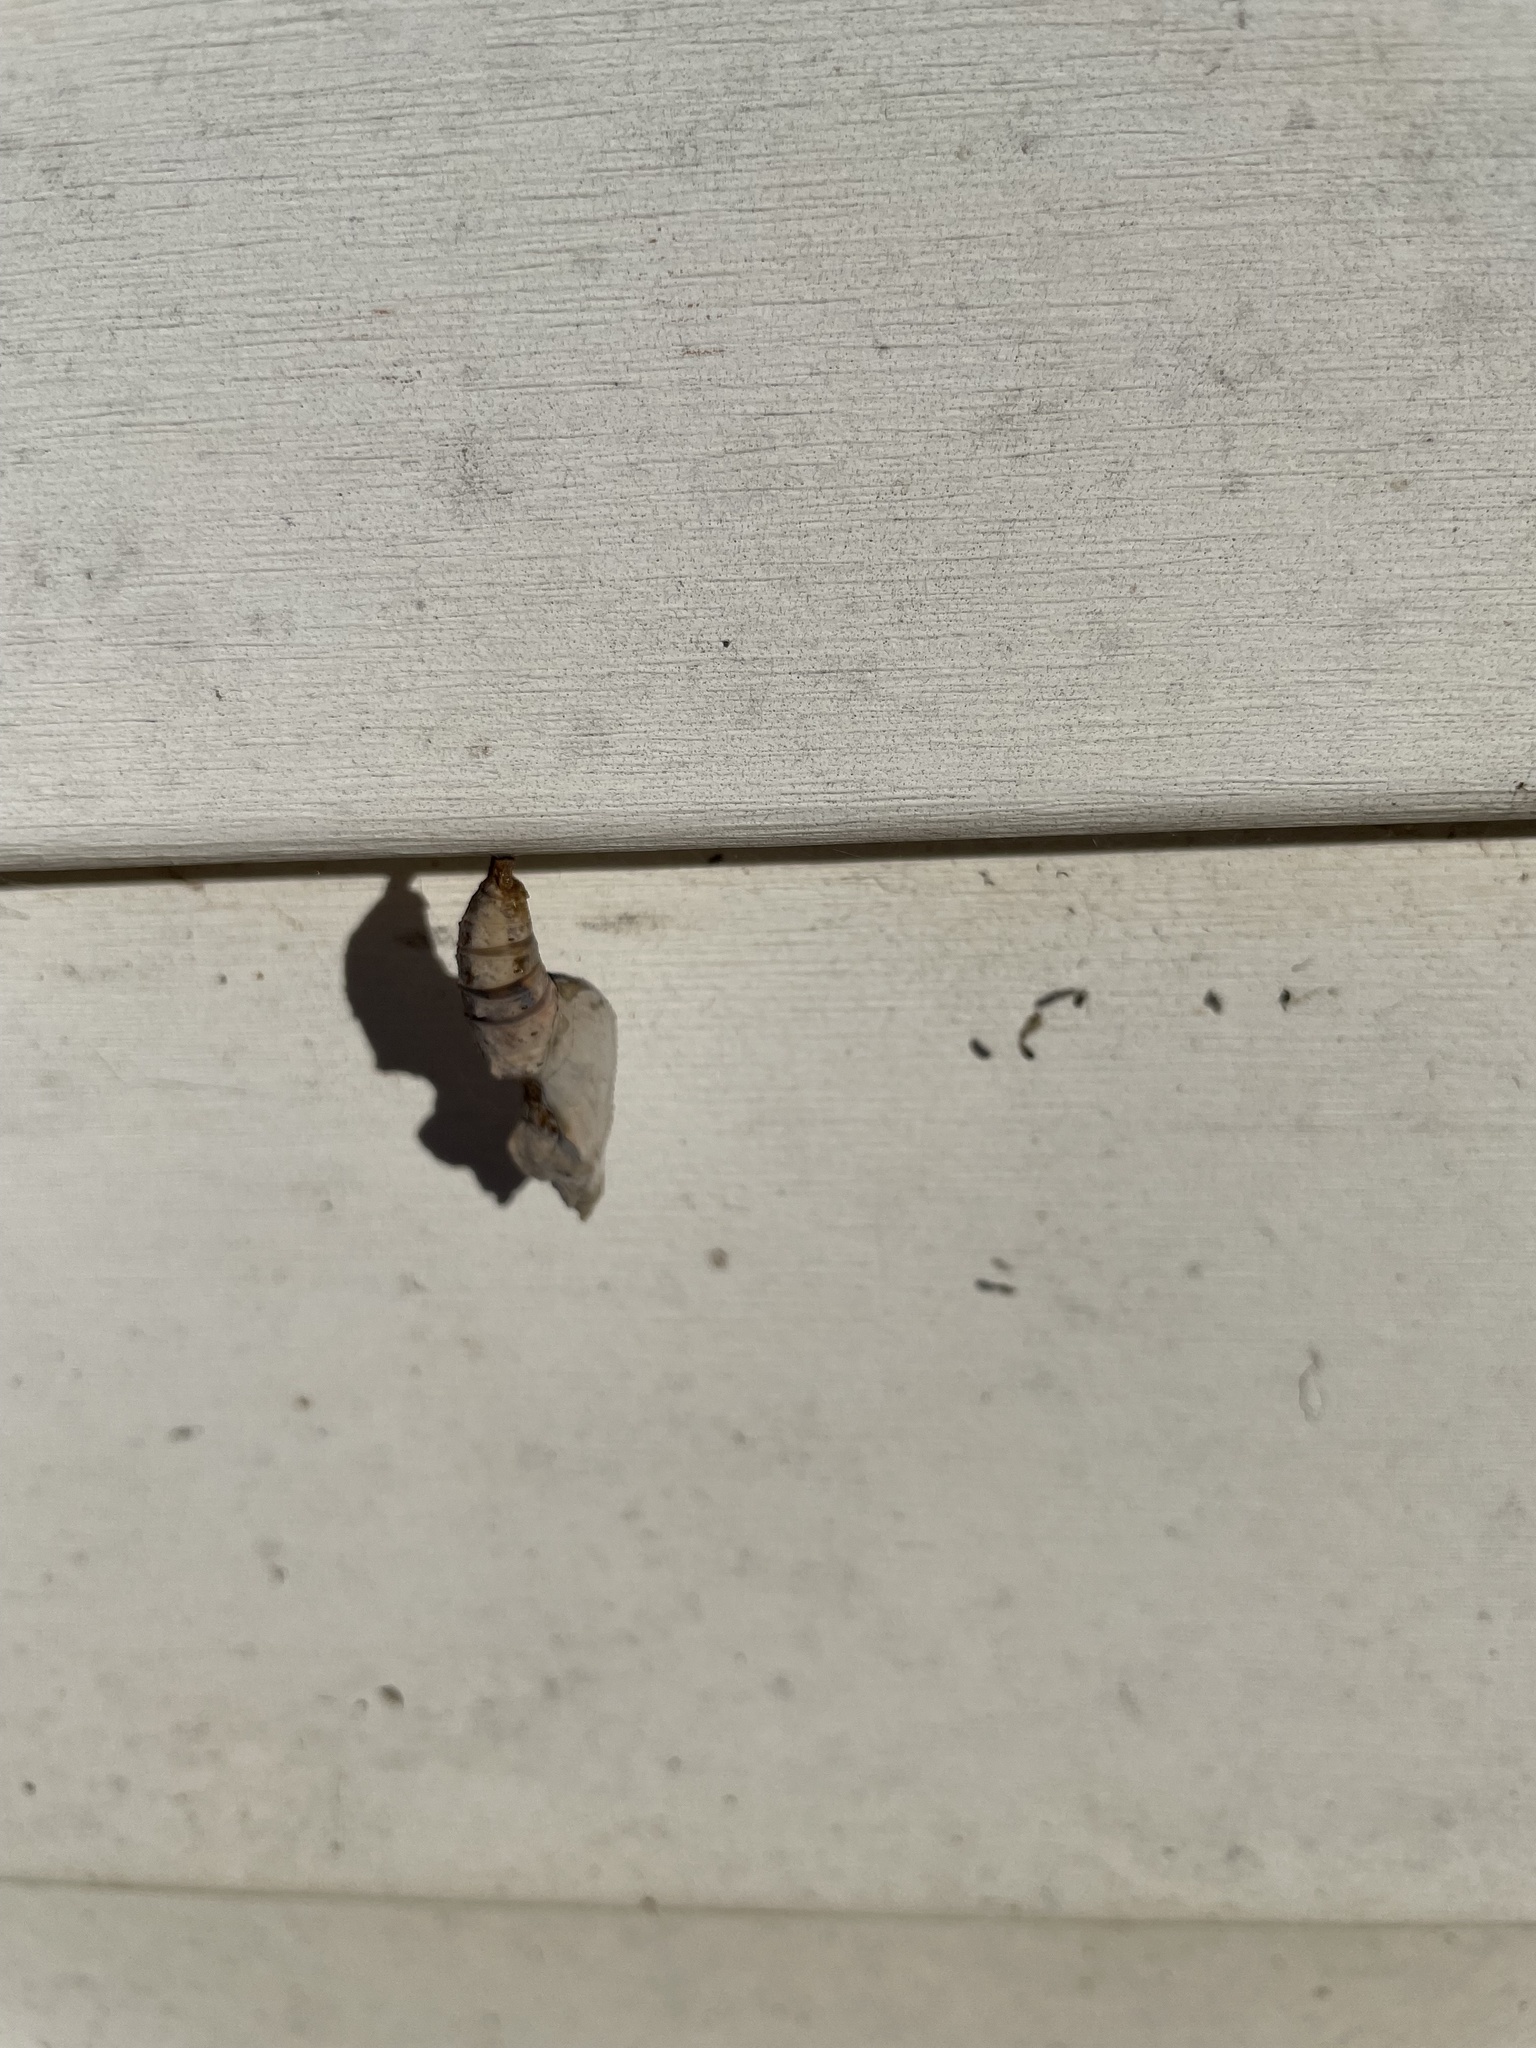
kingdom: Animalia
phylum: Arthropoda
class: Insecta
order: Lepidoptera
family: Nymphalidae
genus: Dione
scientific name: Dione vanillae
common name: Gulf fritillary
